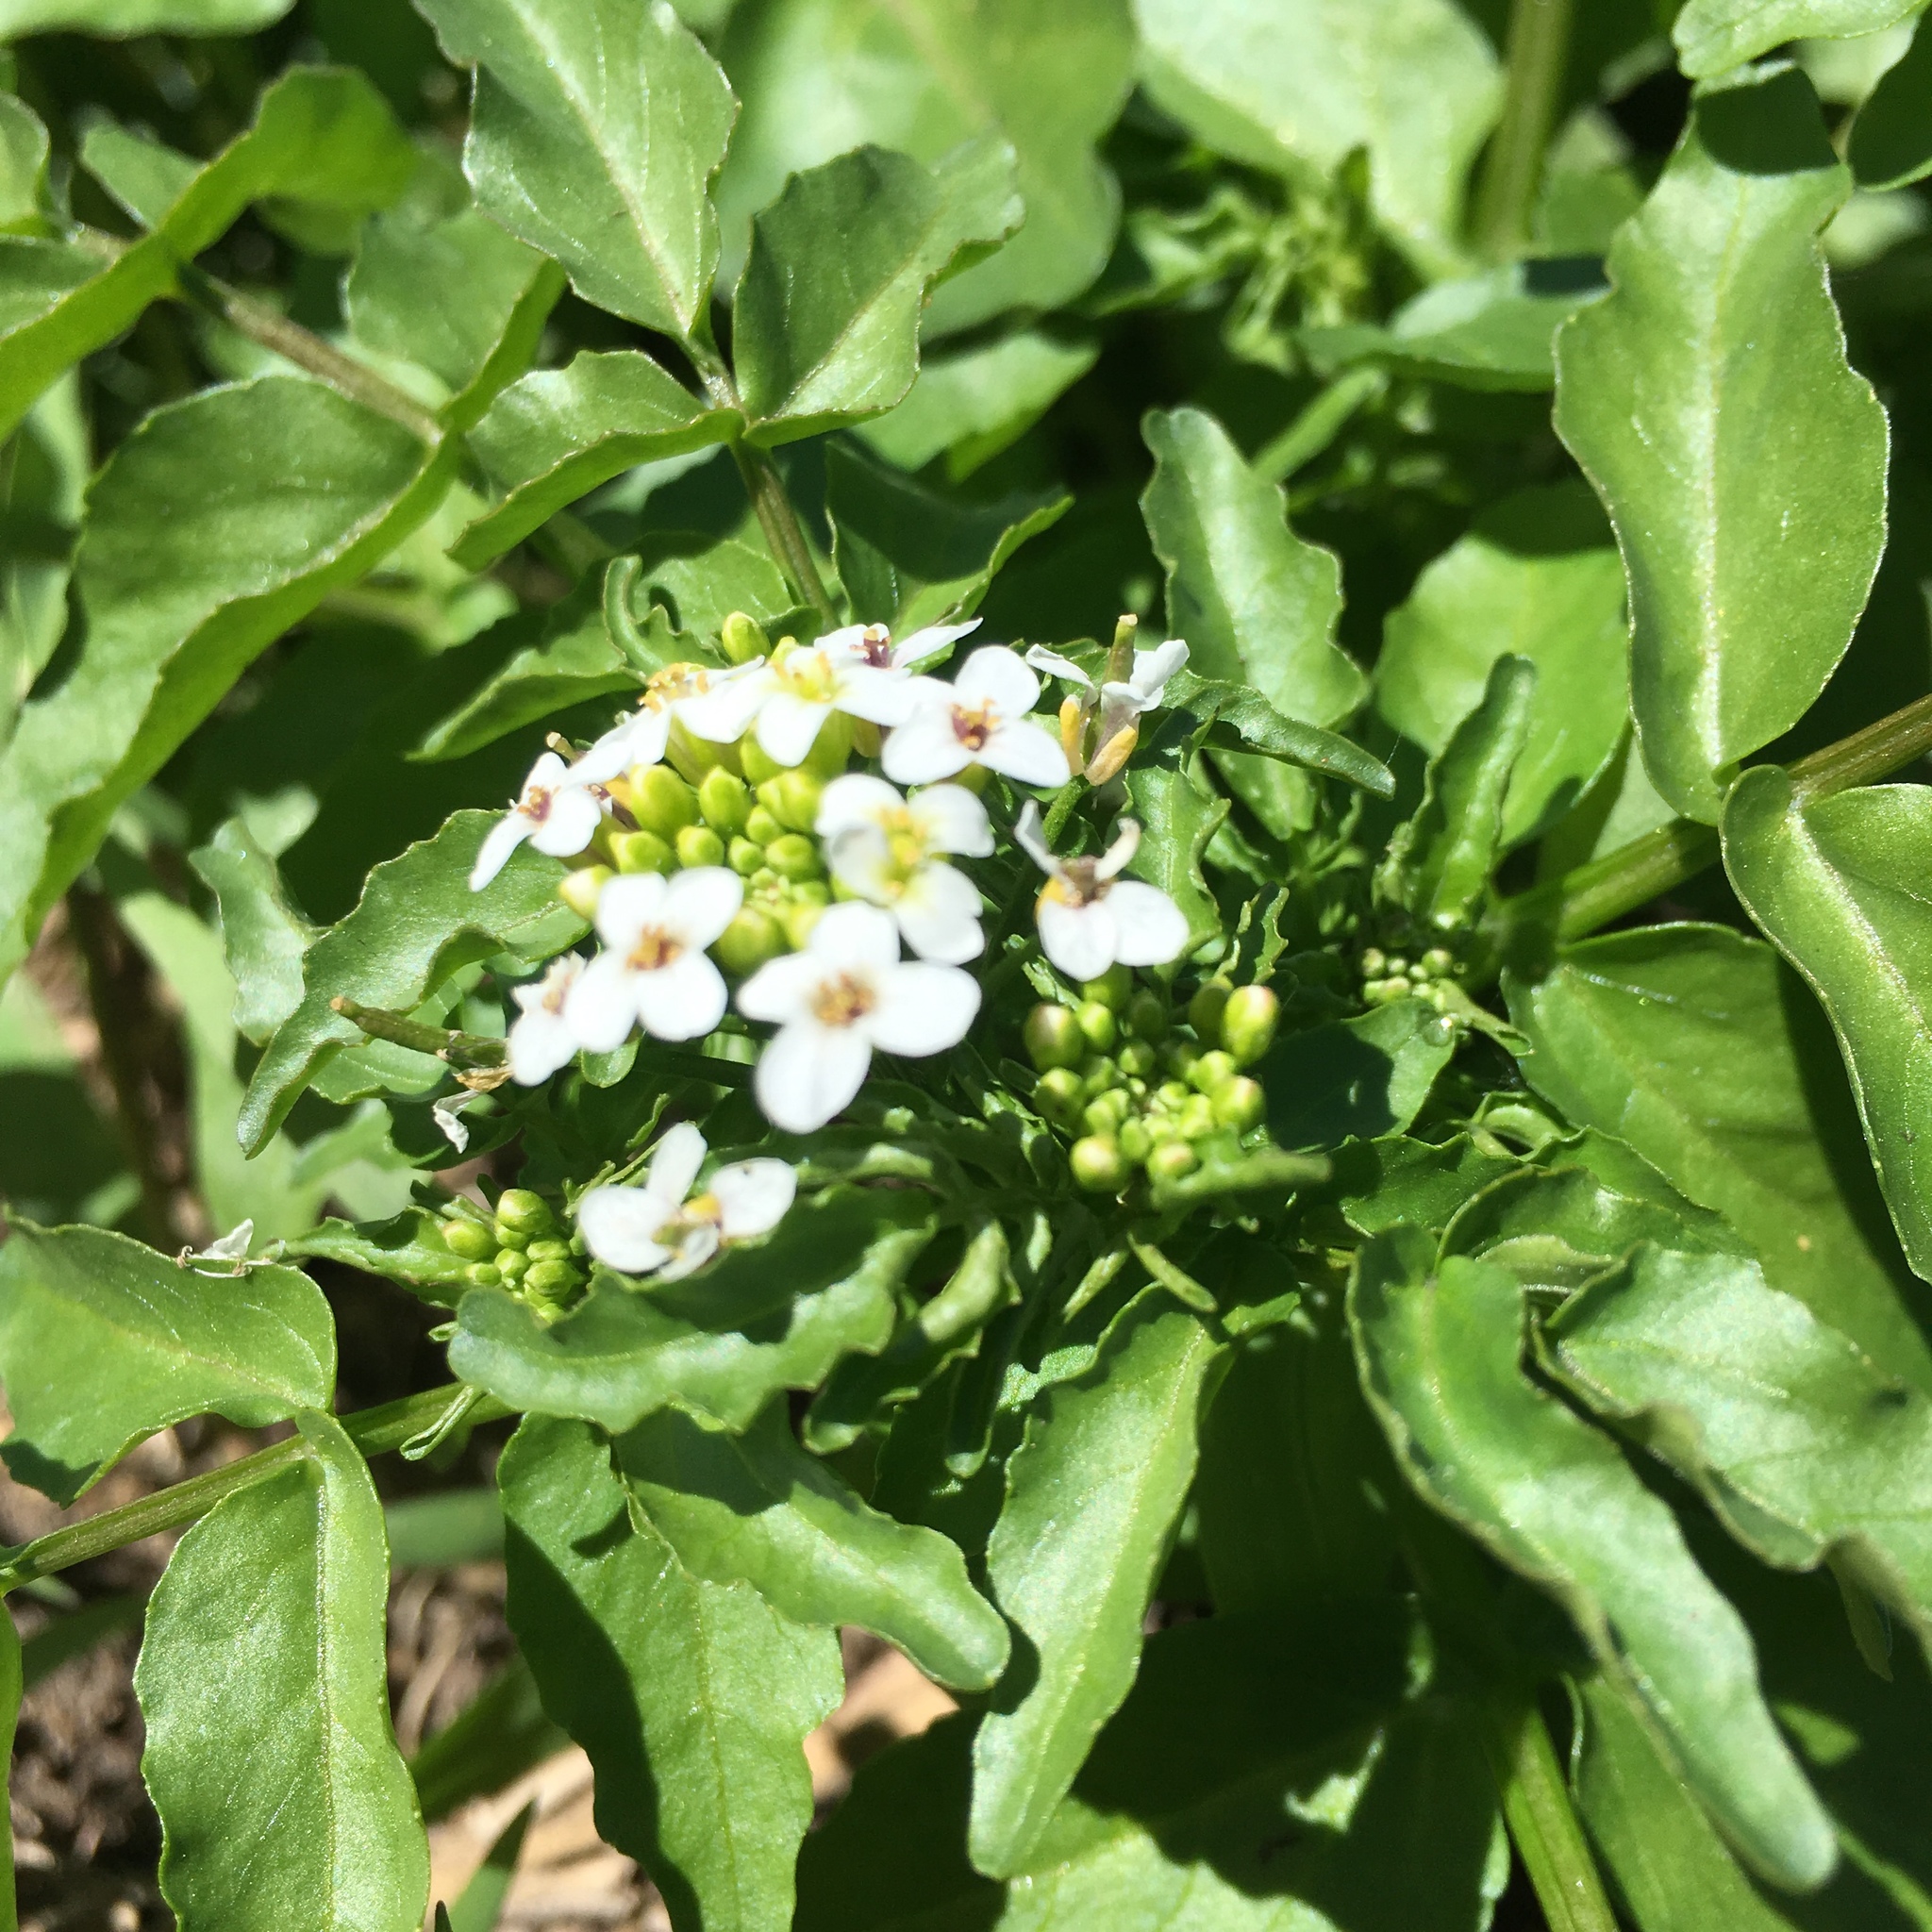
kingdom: Plantae
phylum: Tracheophyta
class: Magnoliopsida
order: Brassicales
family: Brassicaceae
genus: Nasturtium
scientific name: Nasturtium officinale
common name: Watercress
